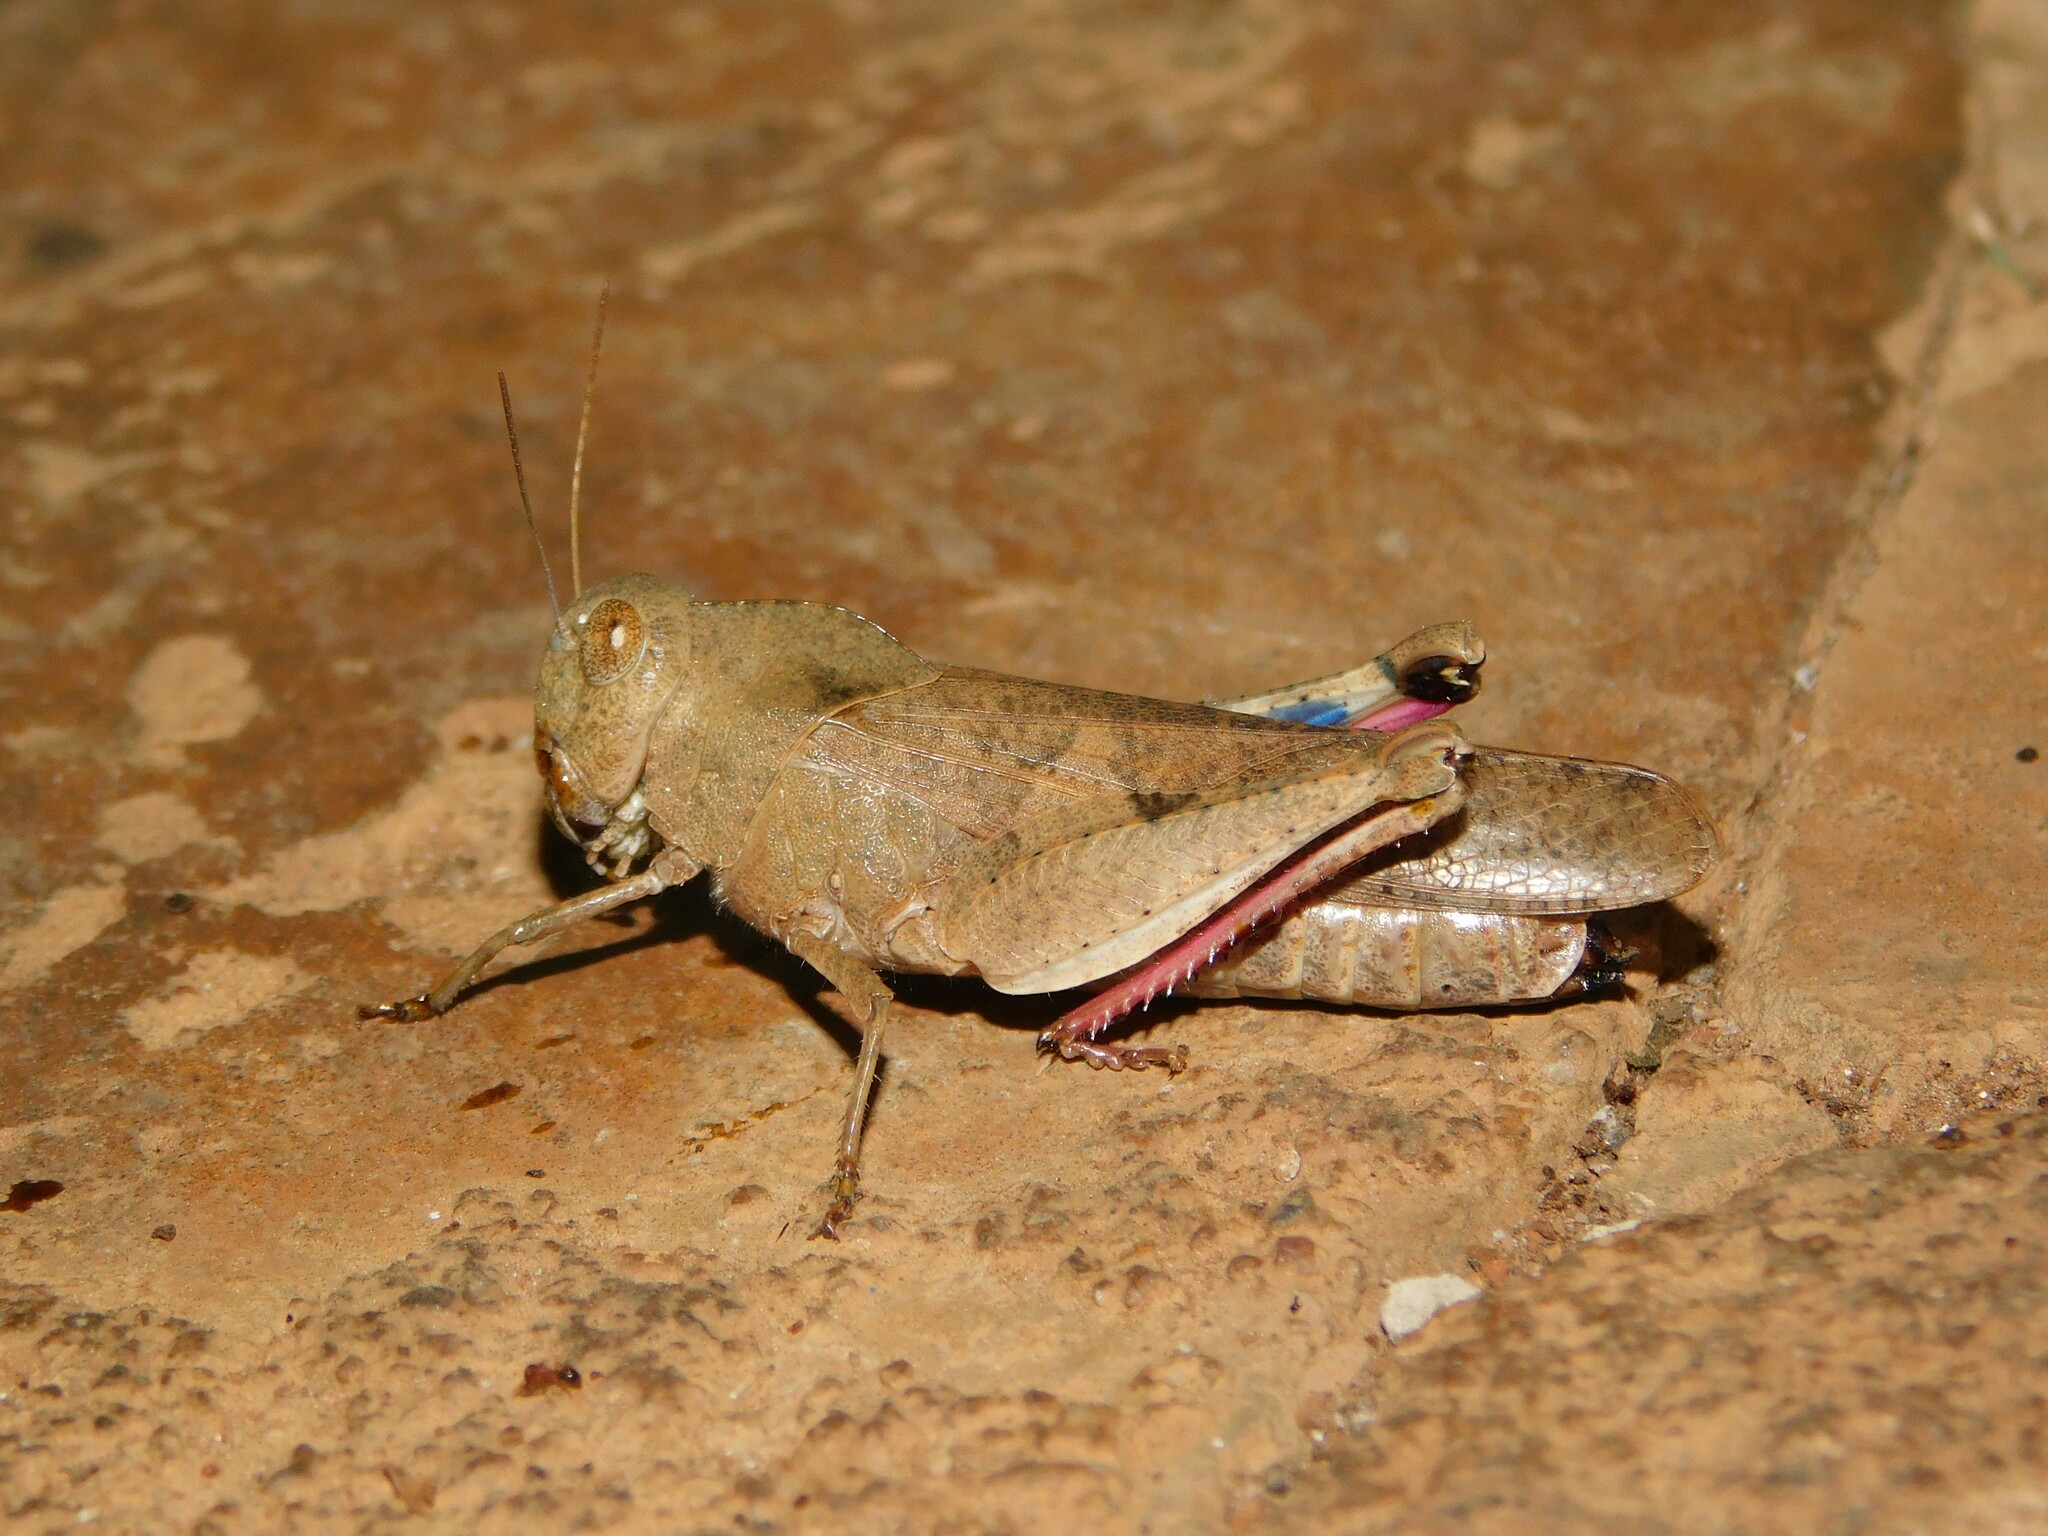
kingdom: Animalia
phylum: Arthropoda
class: Insecta
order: Orthoptera
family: Acrididae
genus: Humbe
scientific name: Humbe tenuicornis
